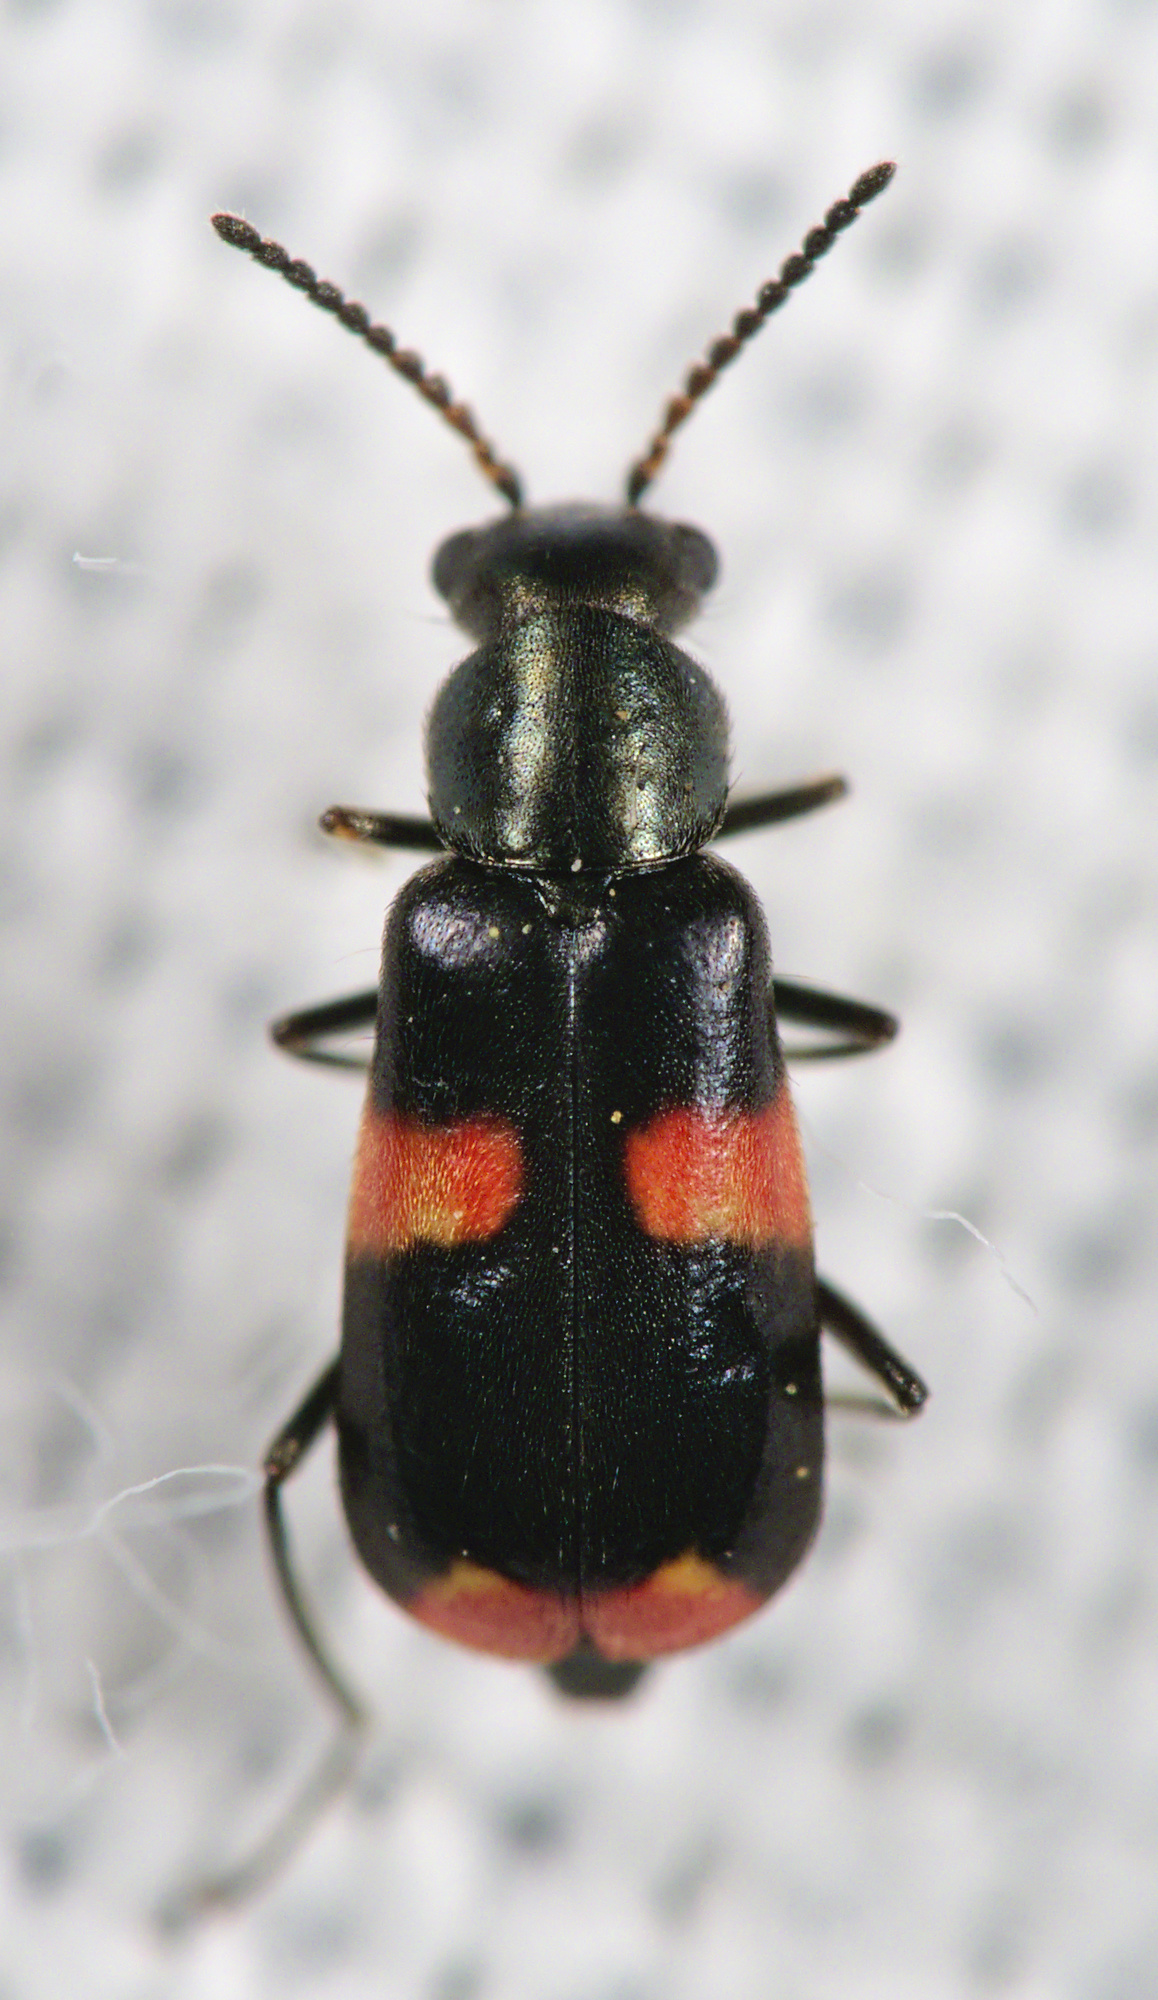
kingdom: Animalia
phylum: Arthropoda
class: Insecta
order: Coleoptera
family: Melyridae
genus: Anthocomus
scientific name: Anthocomus fasciatus
